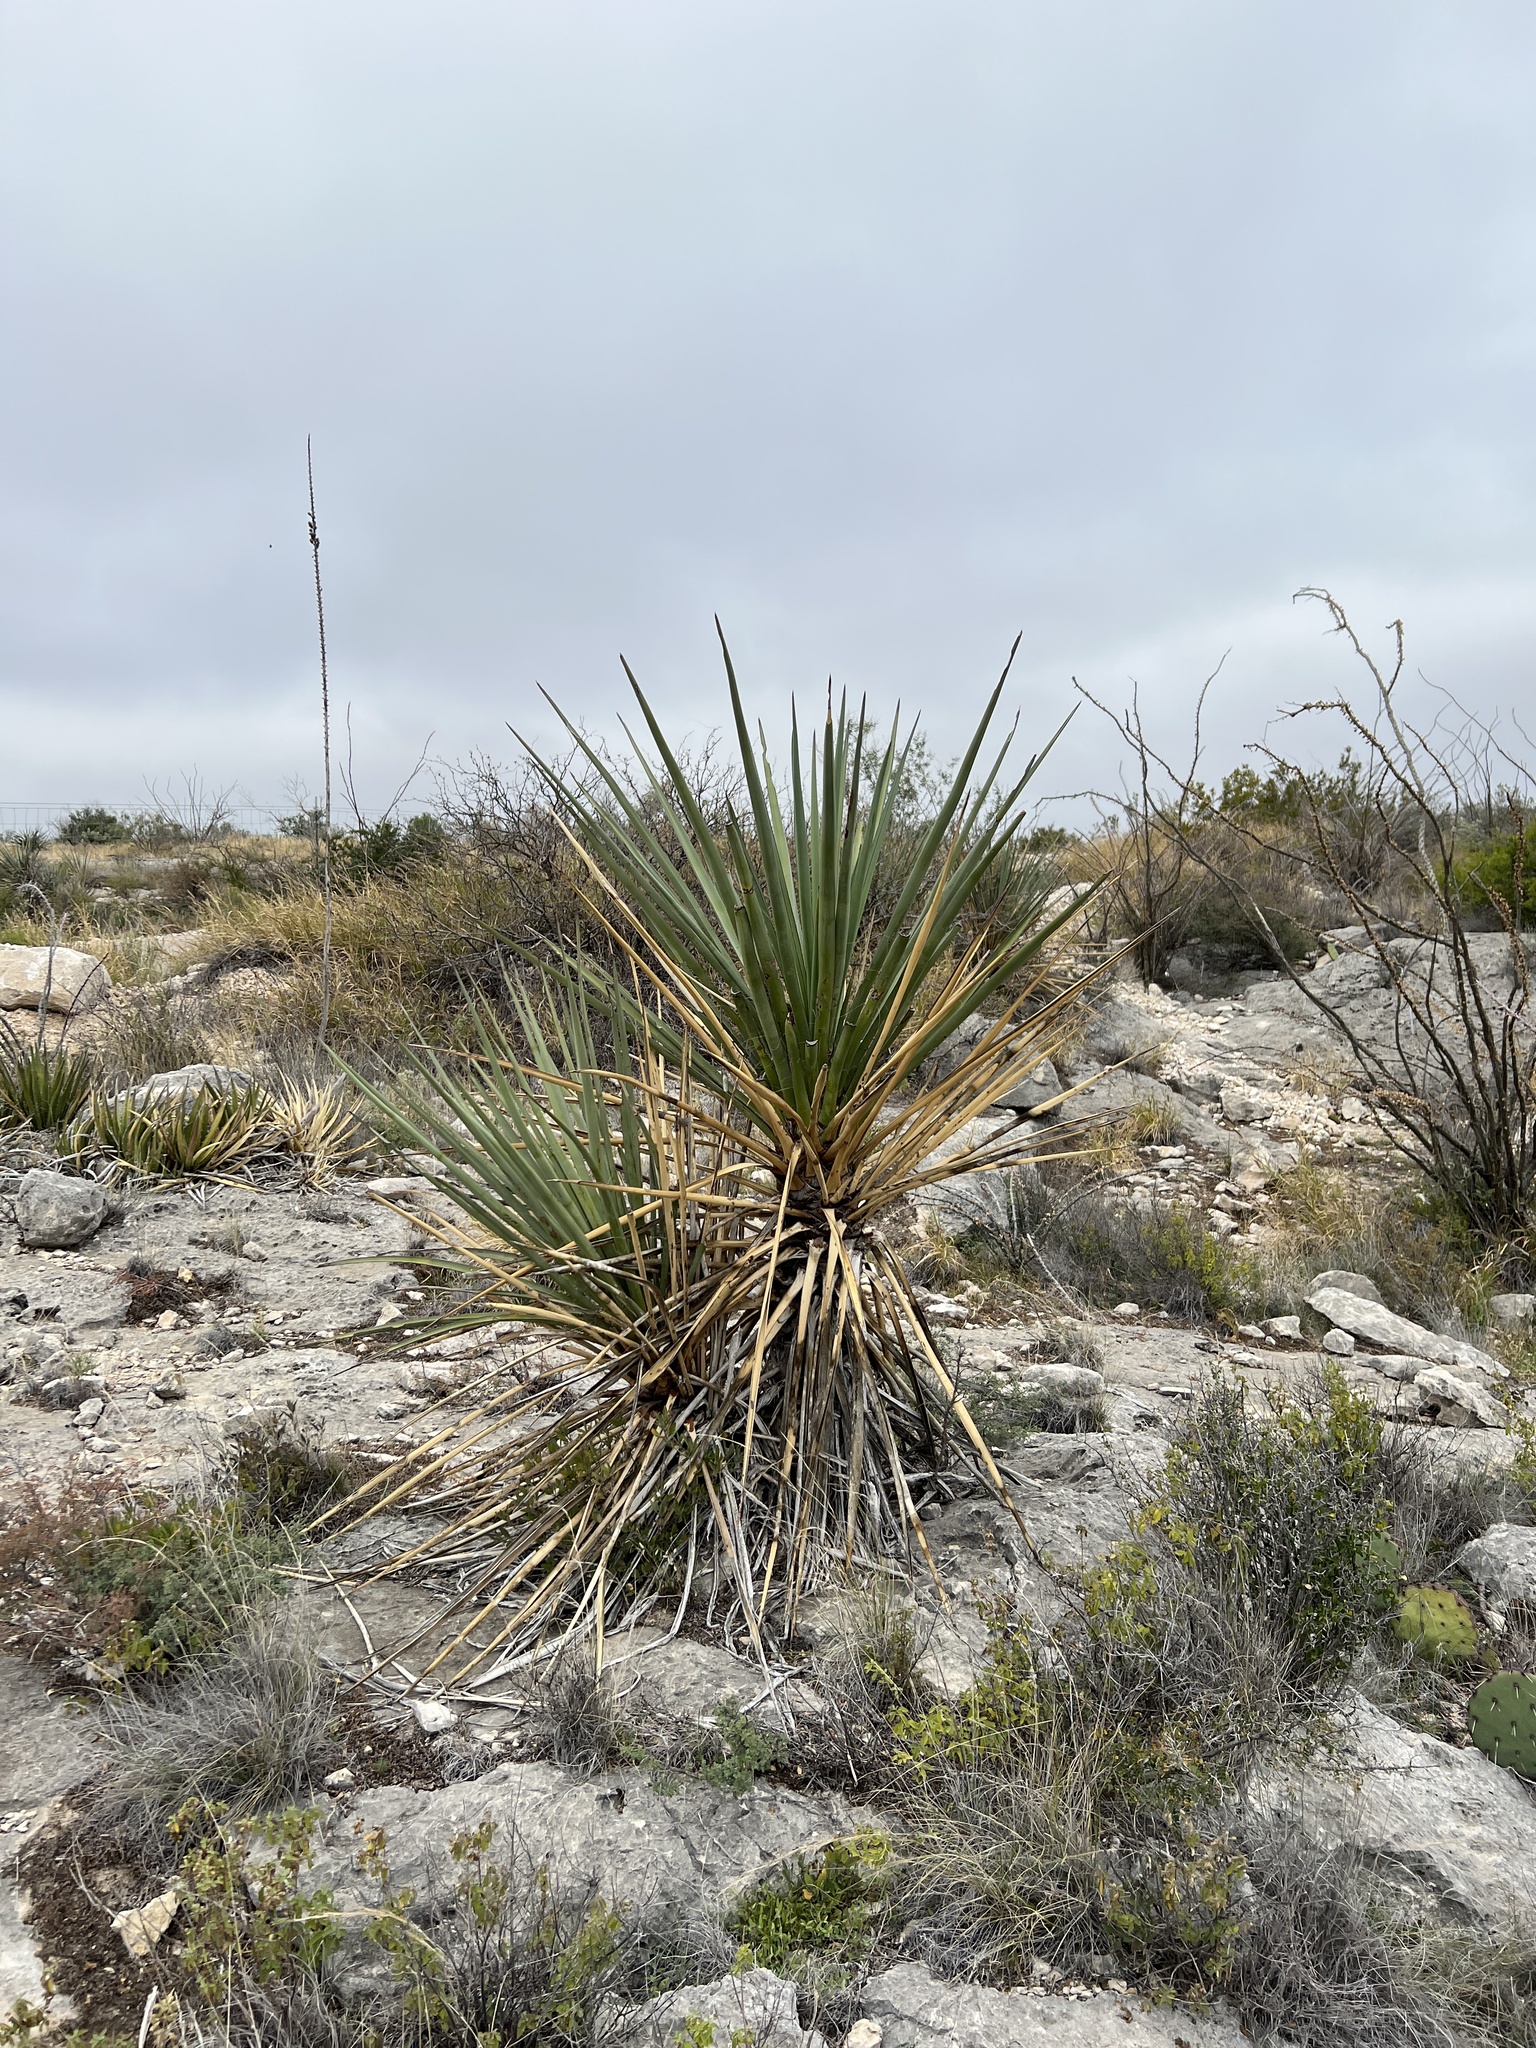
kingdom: Plantae
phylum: Tracheophyta
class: Liliopsida
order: Asparagales
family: Asparagaceae
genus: Yucca
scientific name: Yucca treculiana
